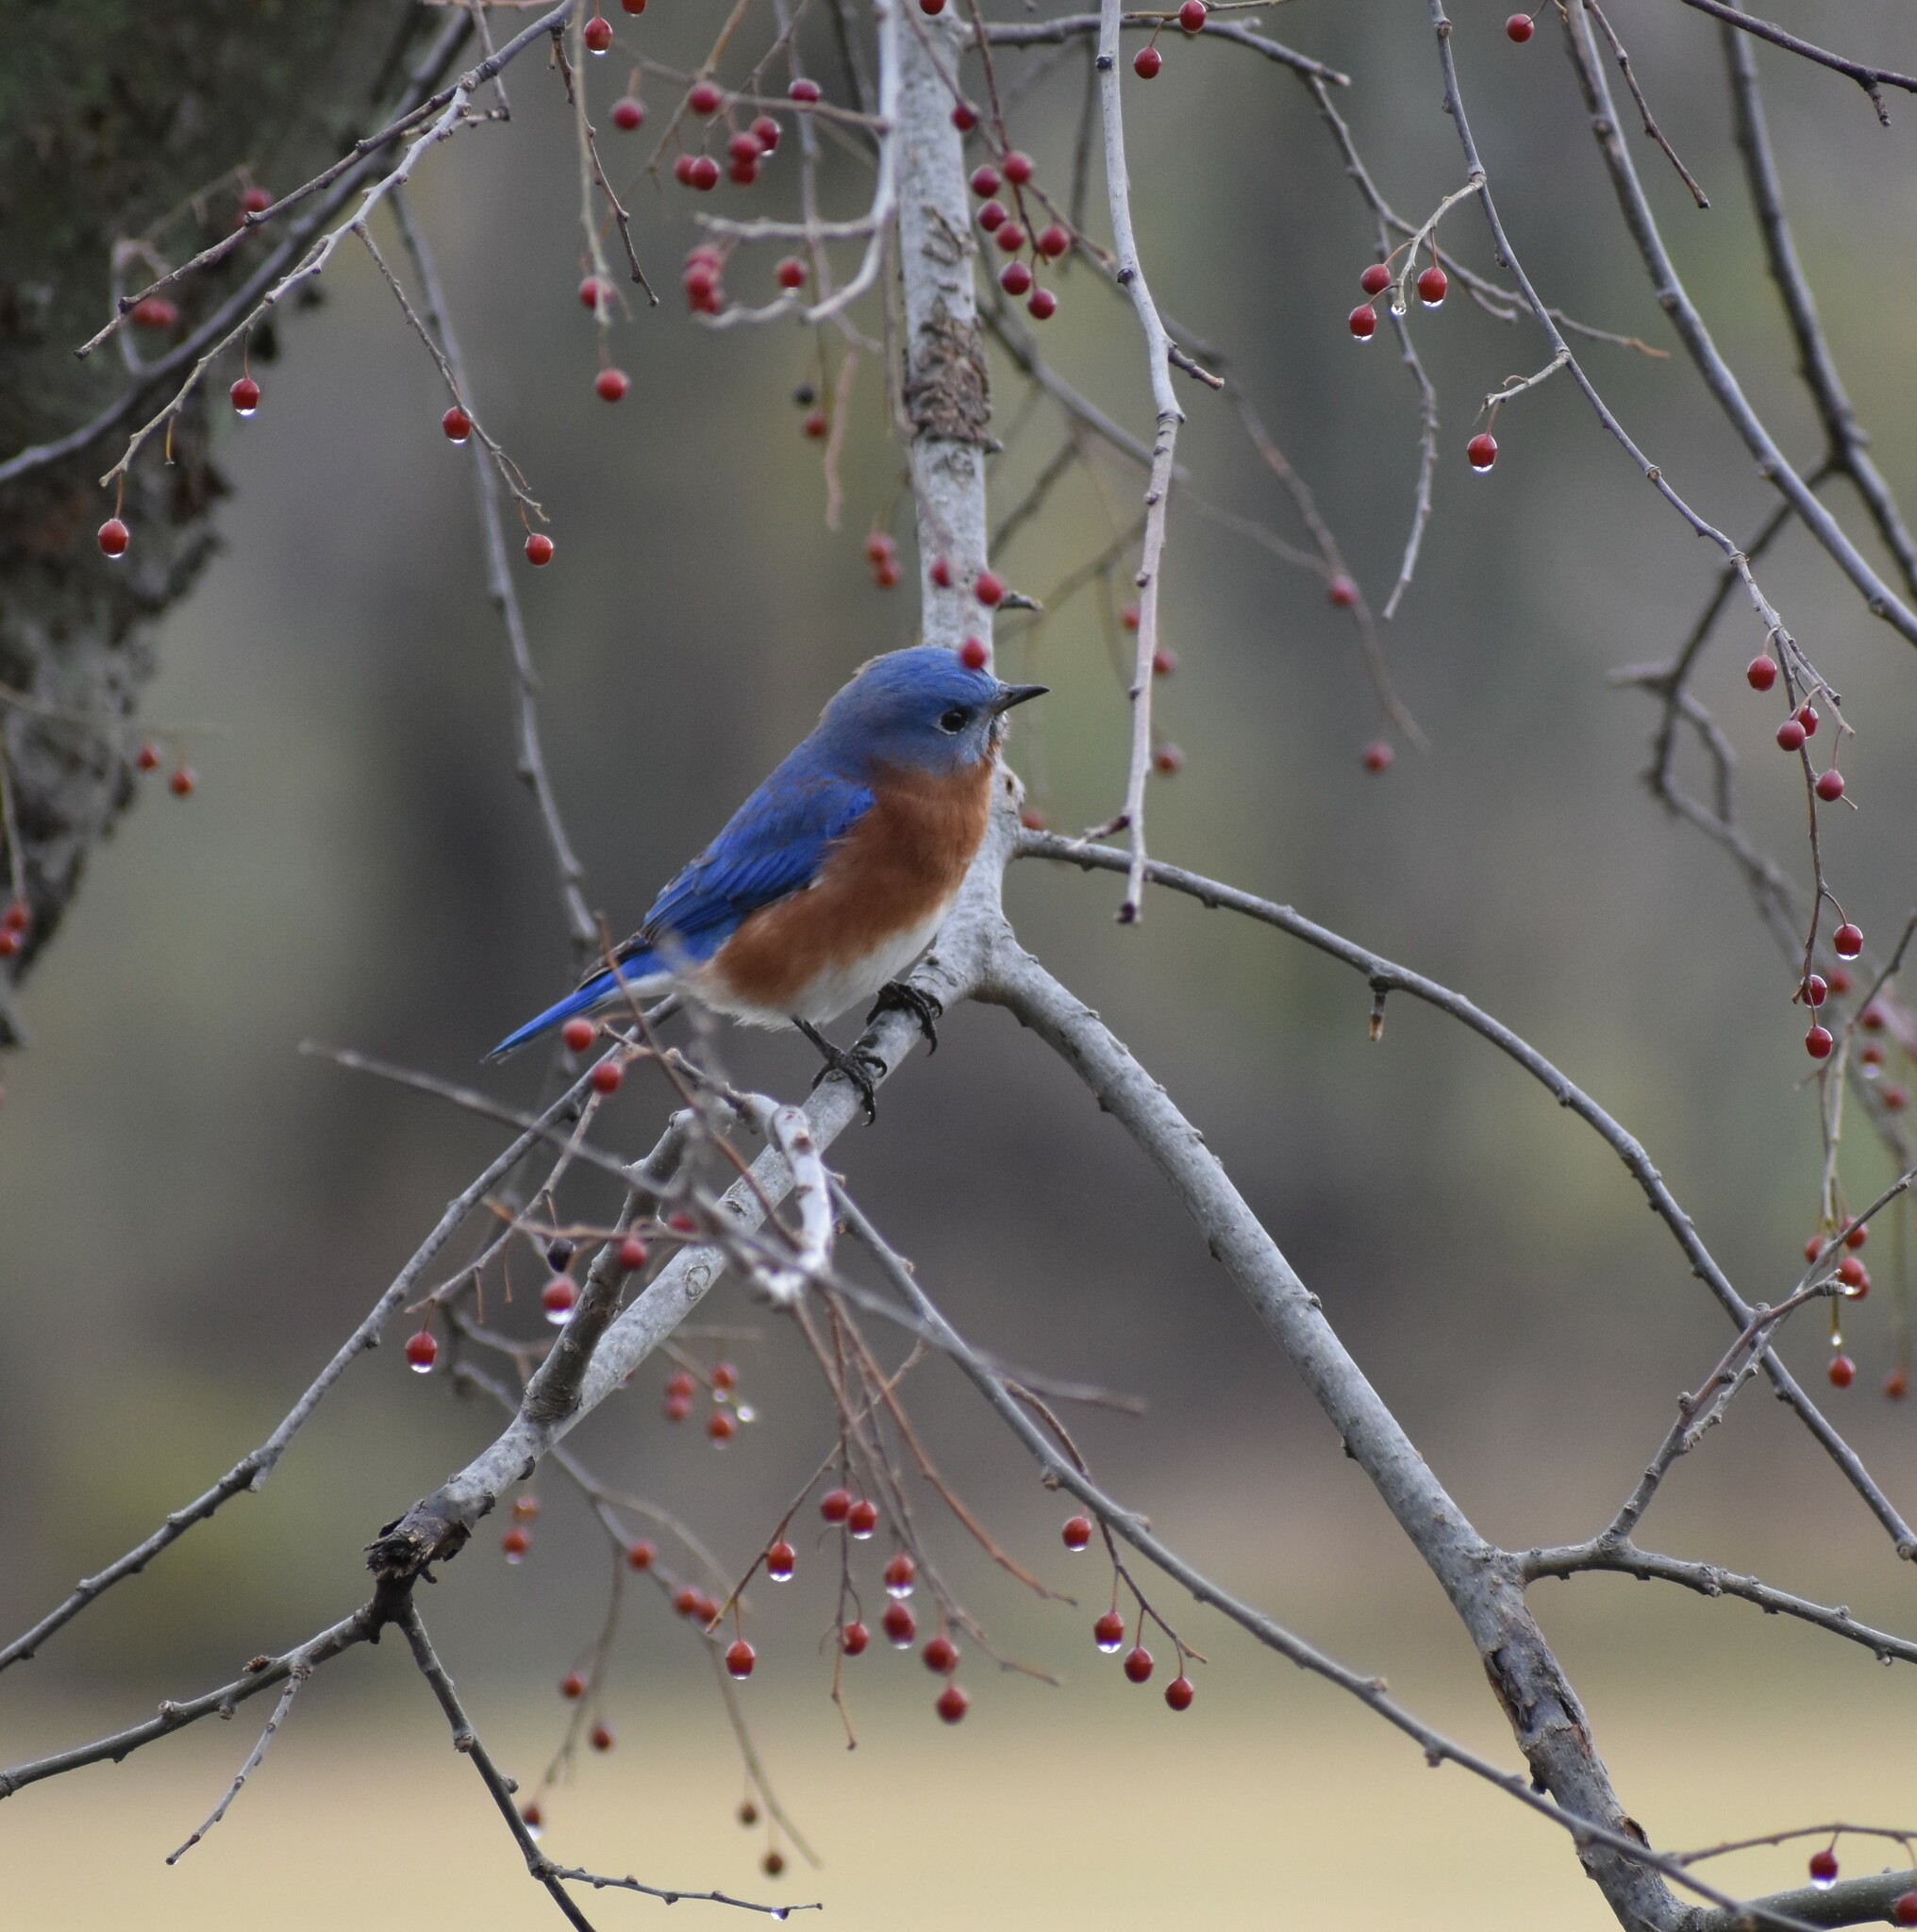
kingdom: Animalia
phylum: Chordata
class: Aves
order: Passeriformes
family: Turdidae
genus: Sialia
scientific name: Sialia sialis
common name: Eastern bluebird
